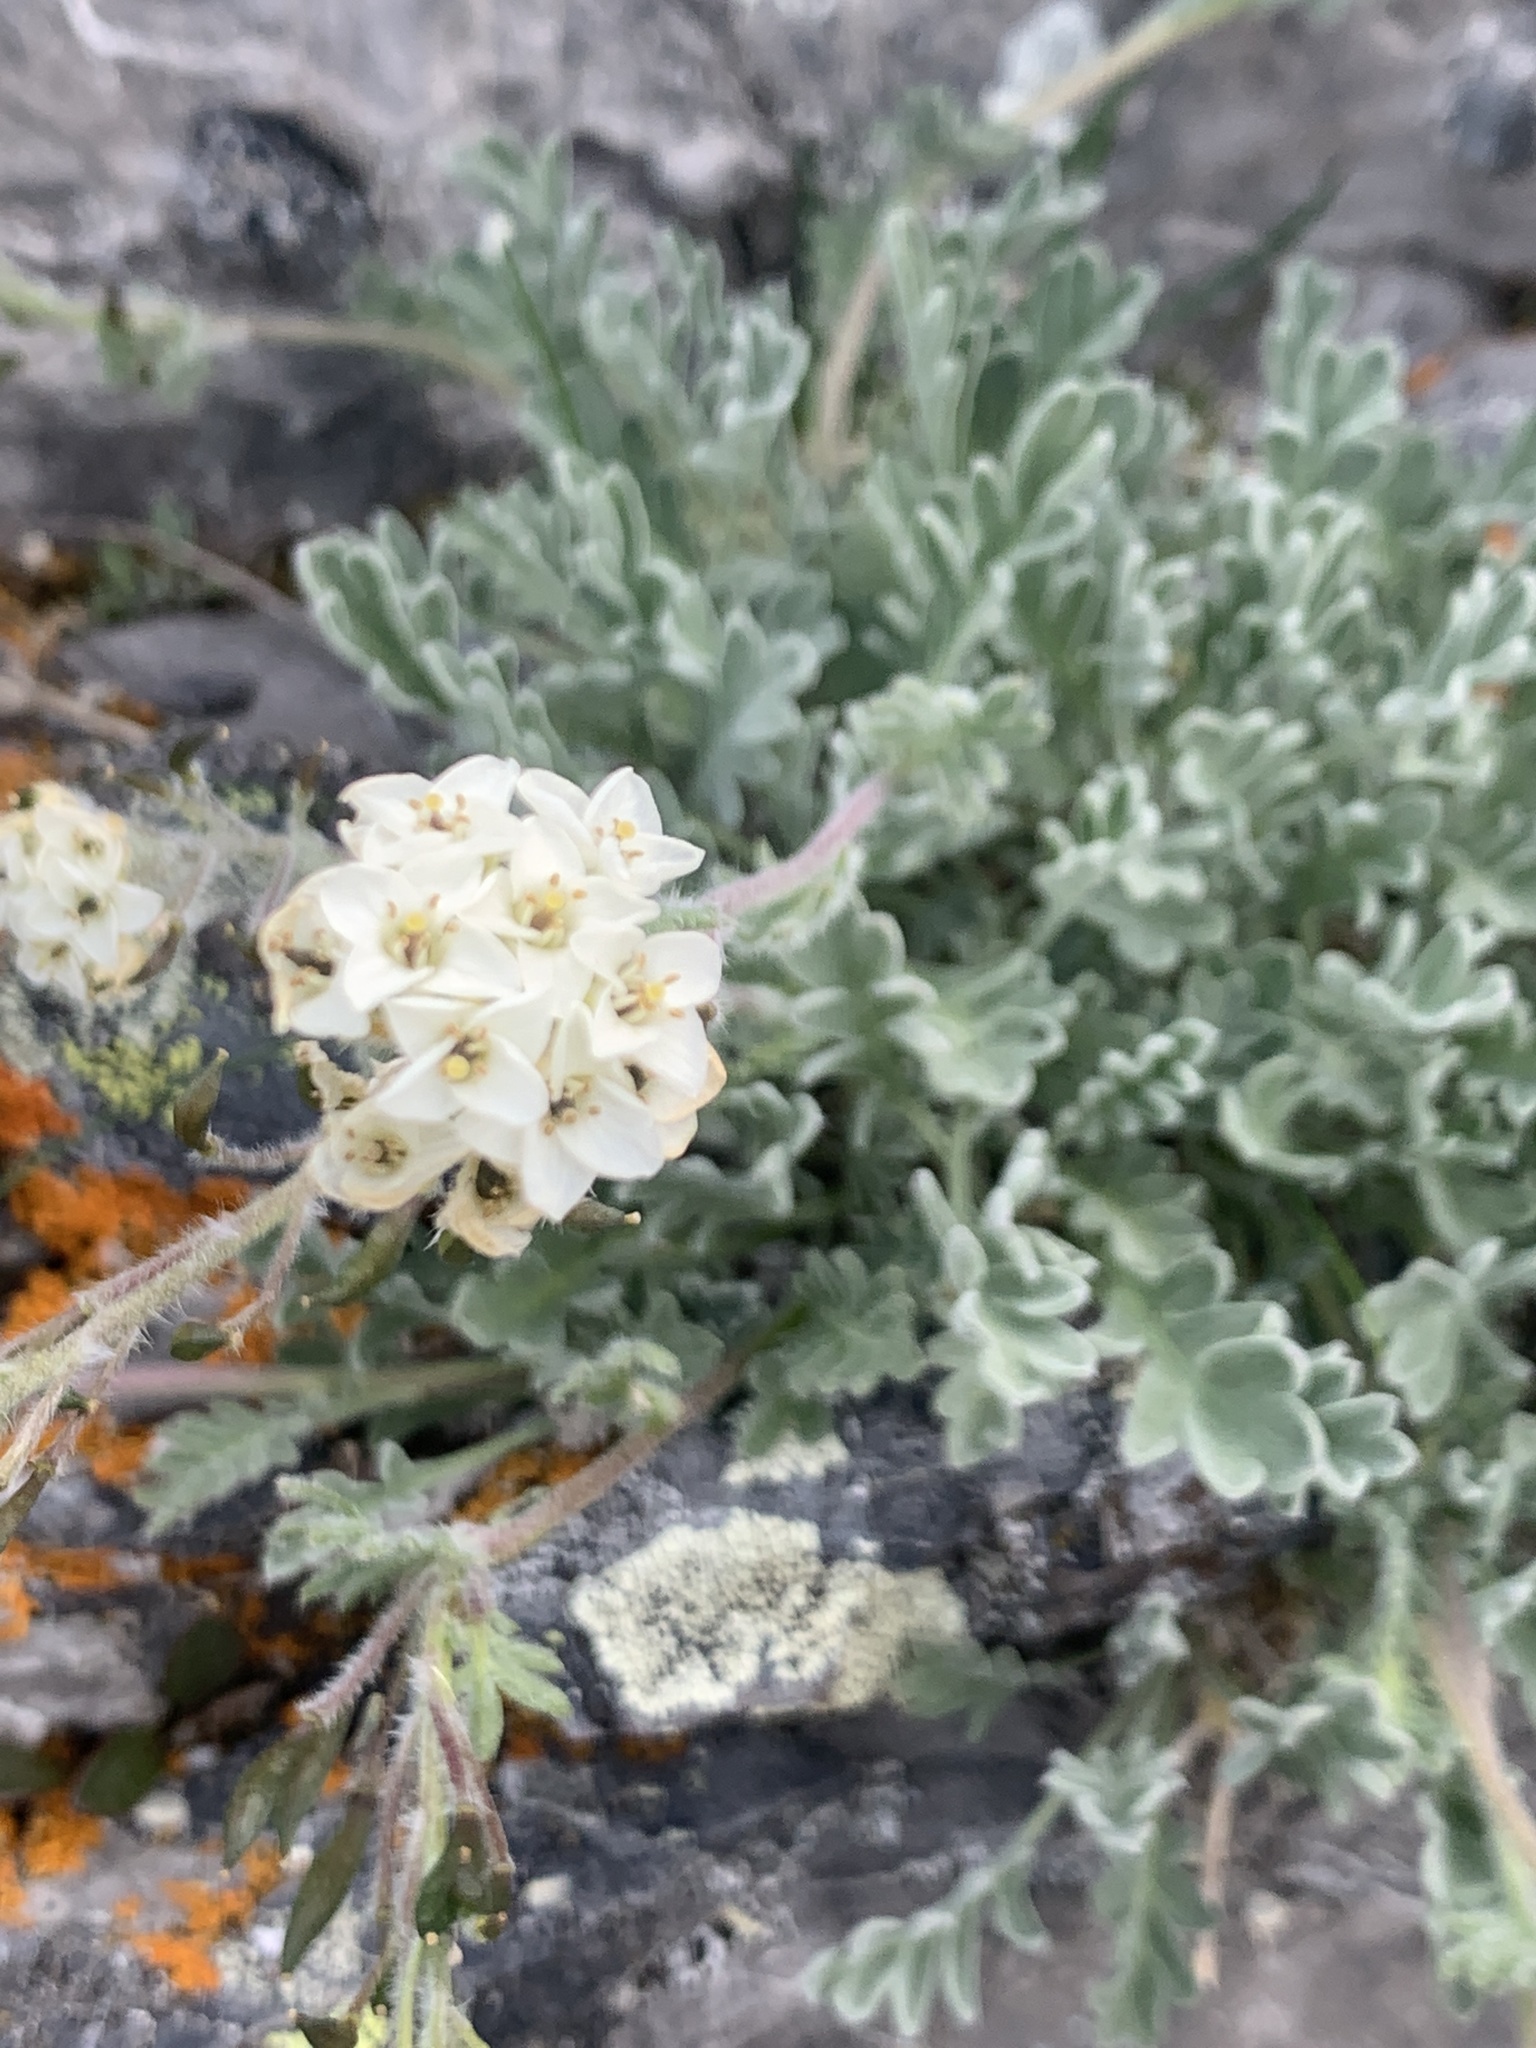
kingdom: Plantae
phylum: Tracheophyta
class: Magnoliopsida
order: Brassicales
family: Brassicaceae
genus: Smelowskia
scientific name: Smelowskia americana
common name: American false candytuft
